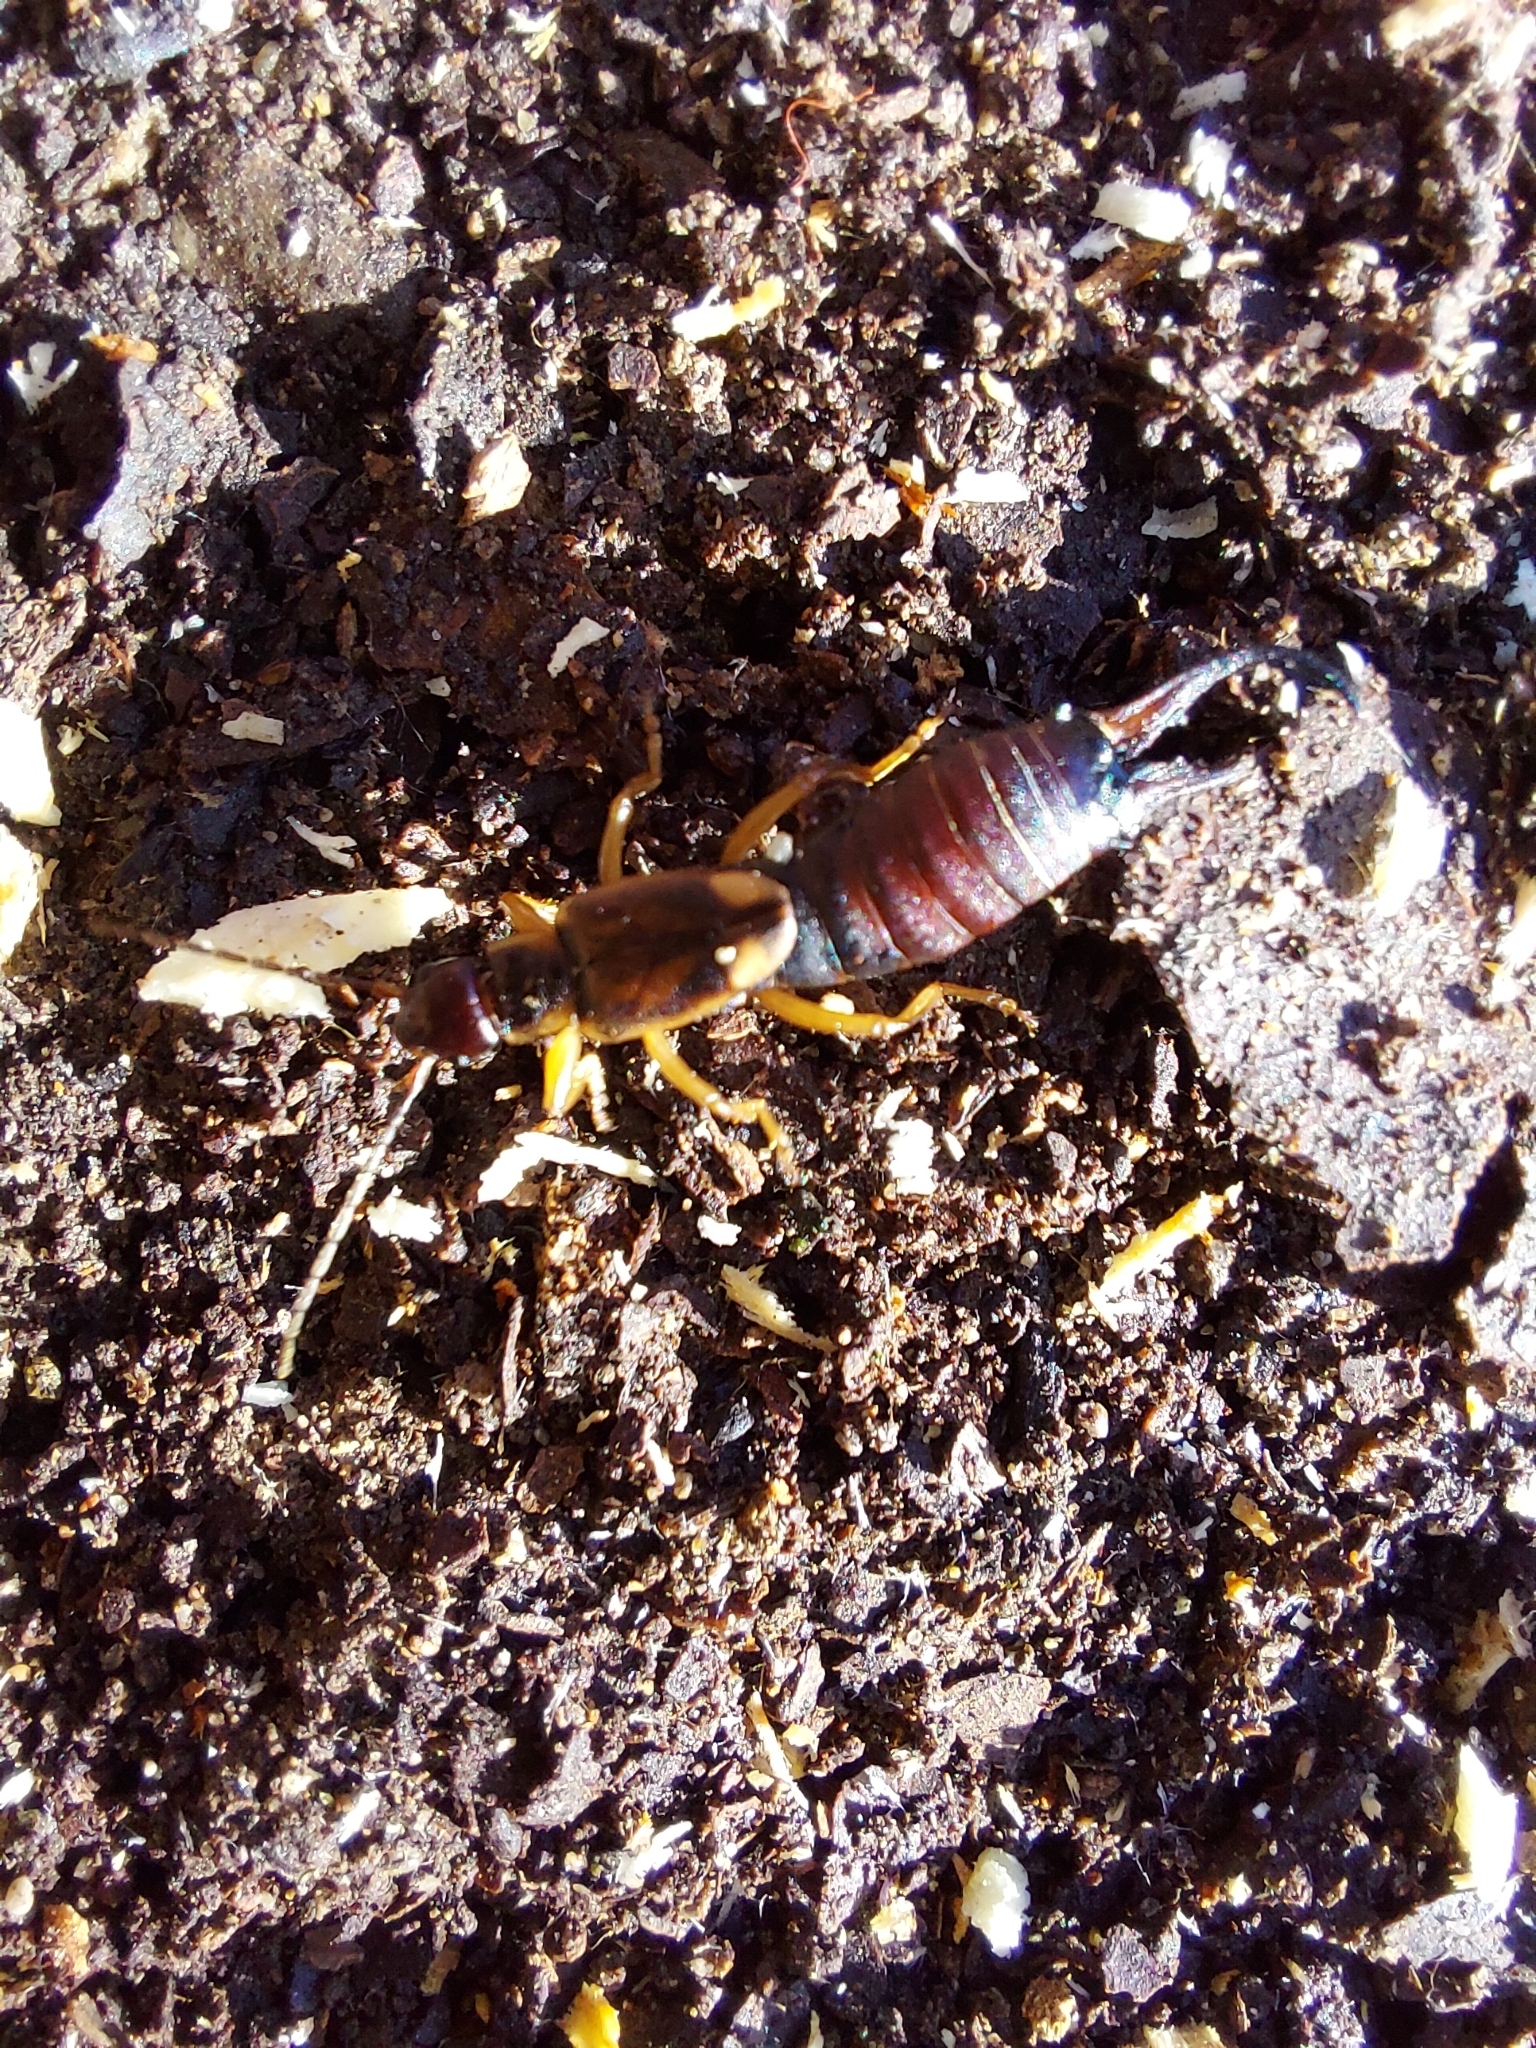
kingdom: Animalia
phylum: Arthropoda
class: Insecta
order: Dermaptera
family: Forficulidae
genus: Forficula
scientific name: Forficula
